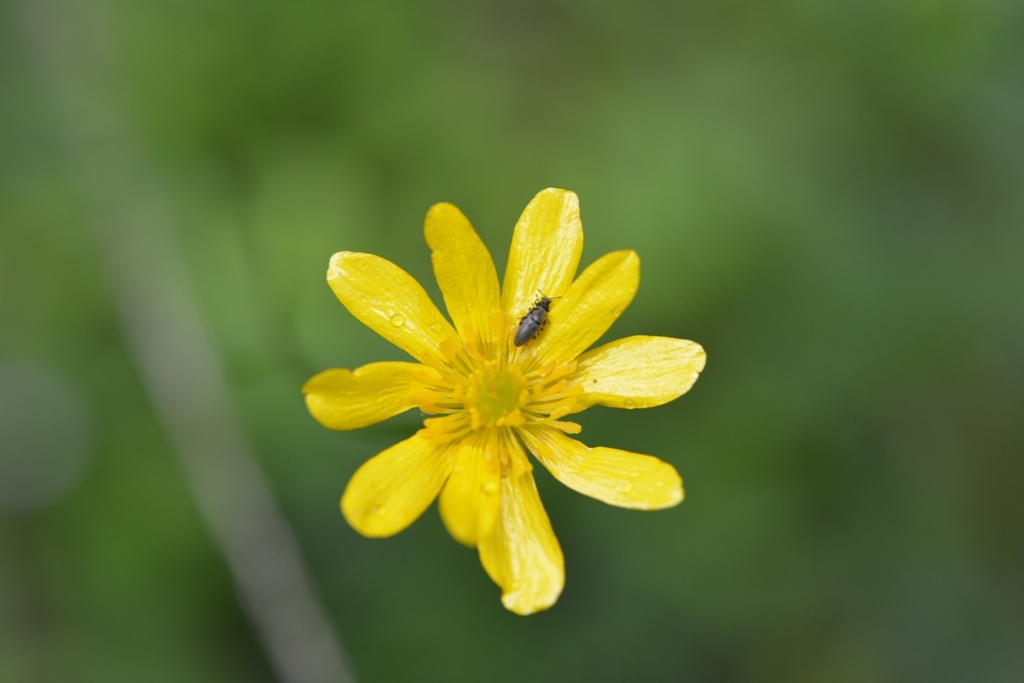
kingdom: Plantae
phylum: Tracheophyta
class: Magnoliopsida
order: Ranunculales
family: Ranunculaceae
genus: Ranunculus
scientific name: Ranunculus petiolaris
